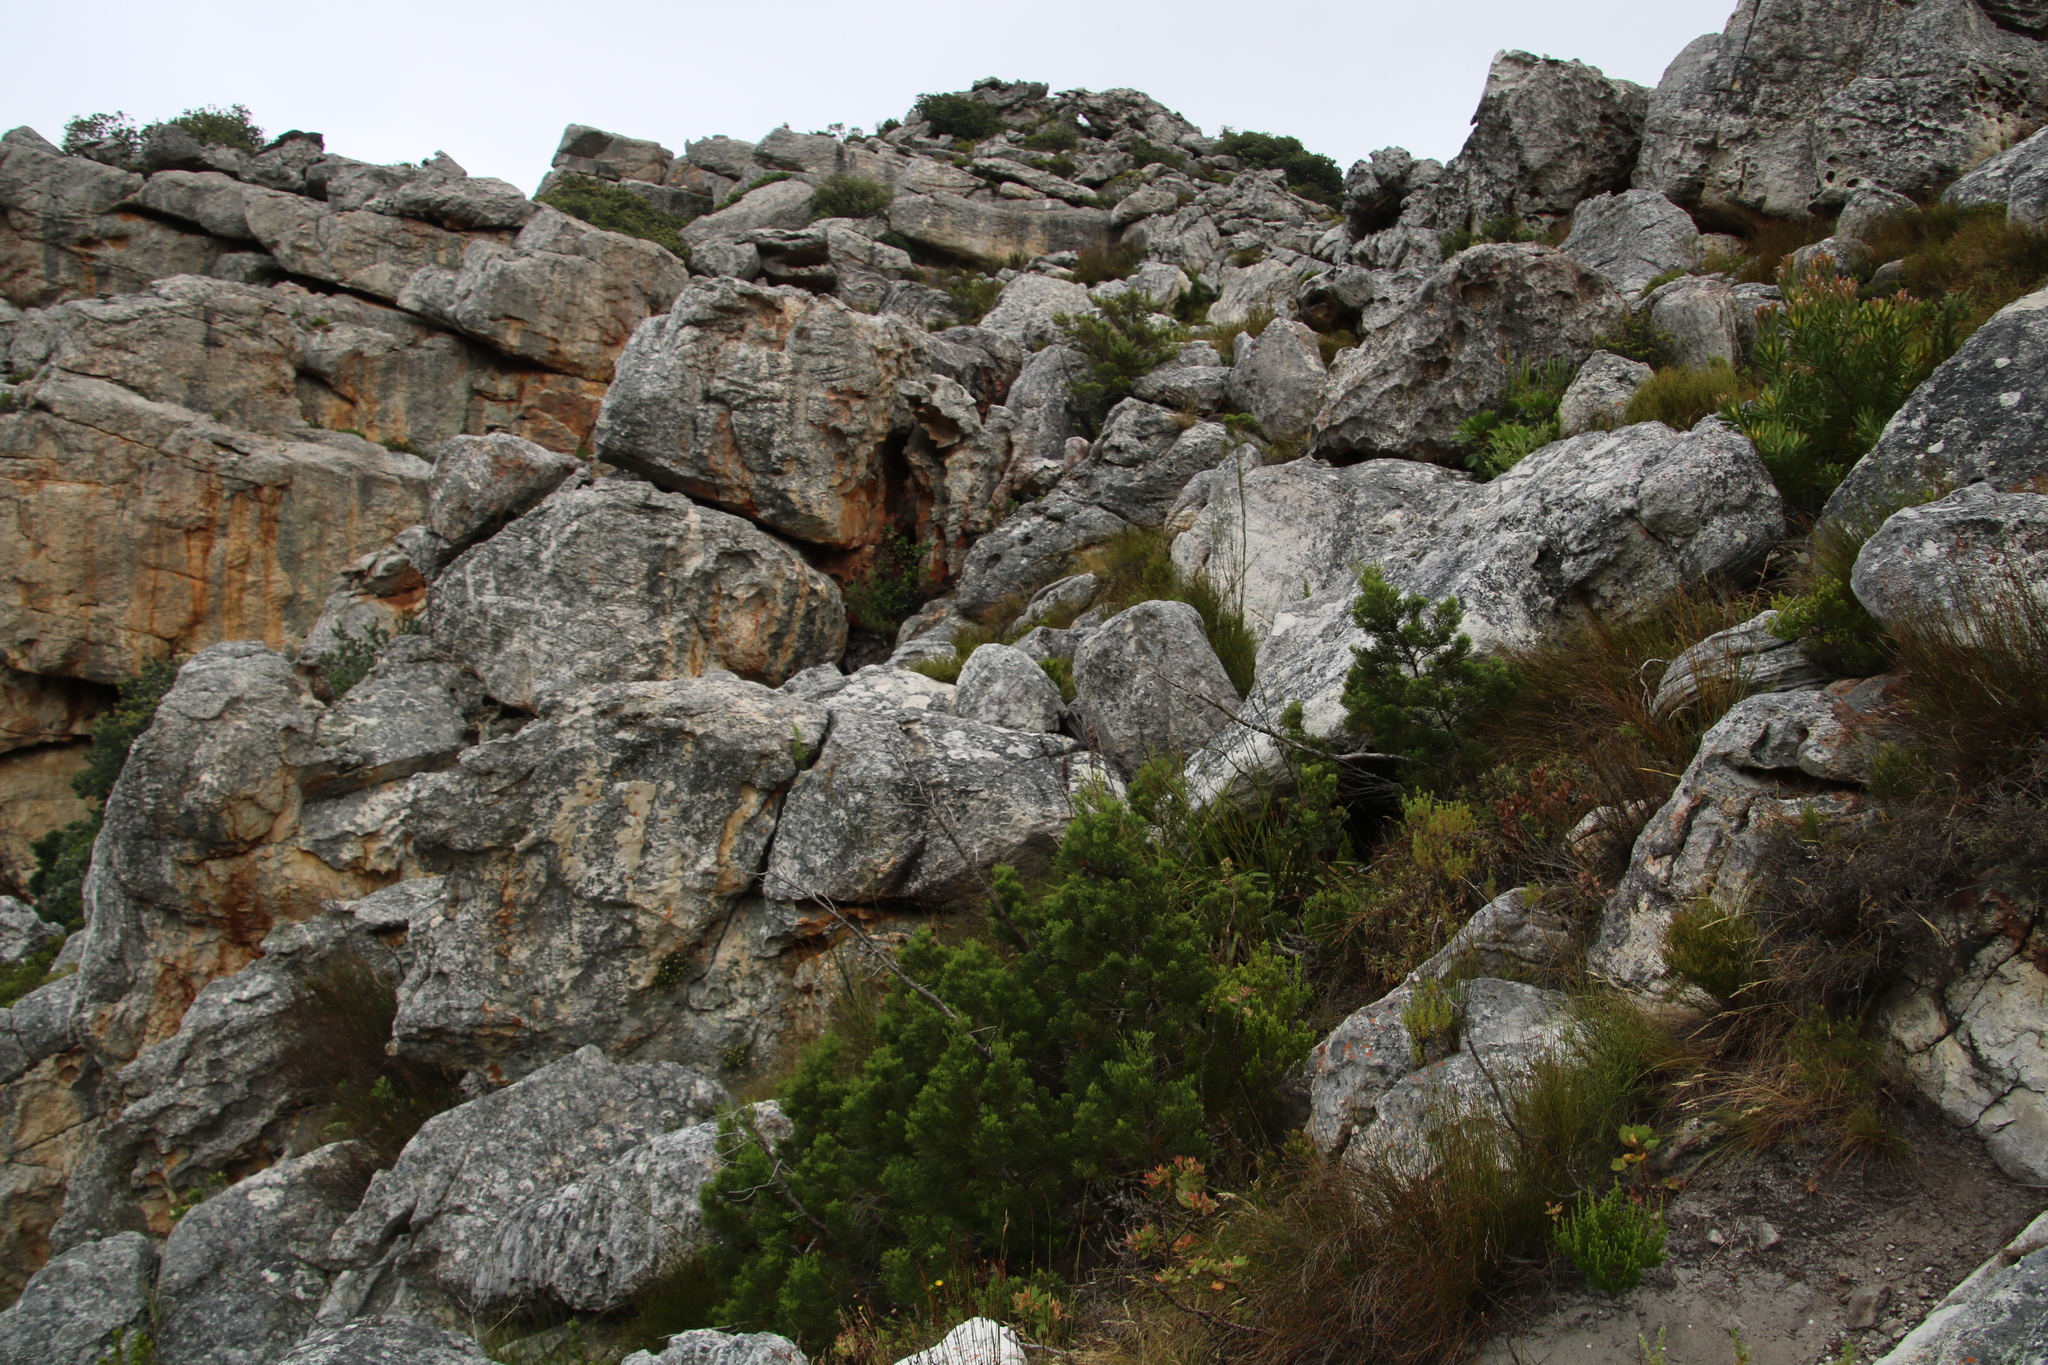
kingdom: Plantae
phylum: Tracheophyta
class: Pinopsida
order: Pinales
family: Cupressaceae
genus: Widdringtonia
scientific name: Widdringtonia nodiflora
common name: Cape cypress
